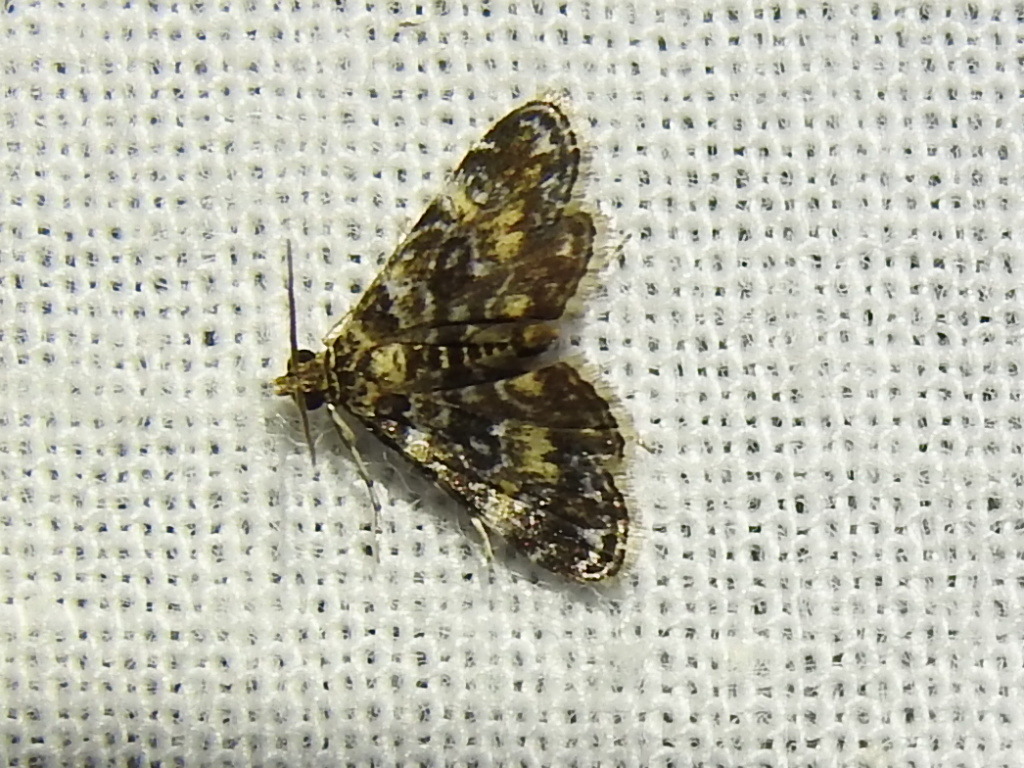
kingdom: Animalia
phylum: Arthropoda
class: Insecta
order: Lepidoptera
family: Crambidae
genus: Elophila
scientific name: Elophila obliteralis
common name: Waterlily leafcutter moth
